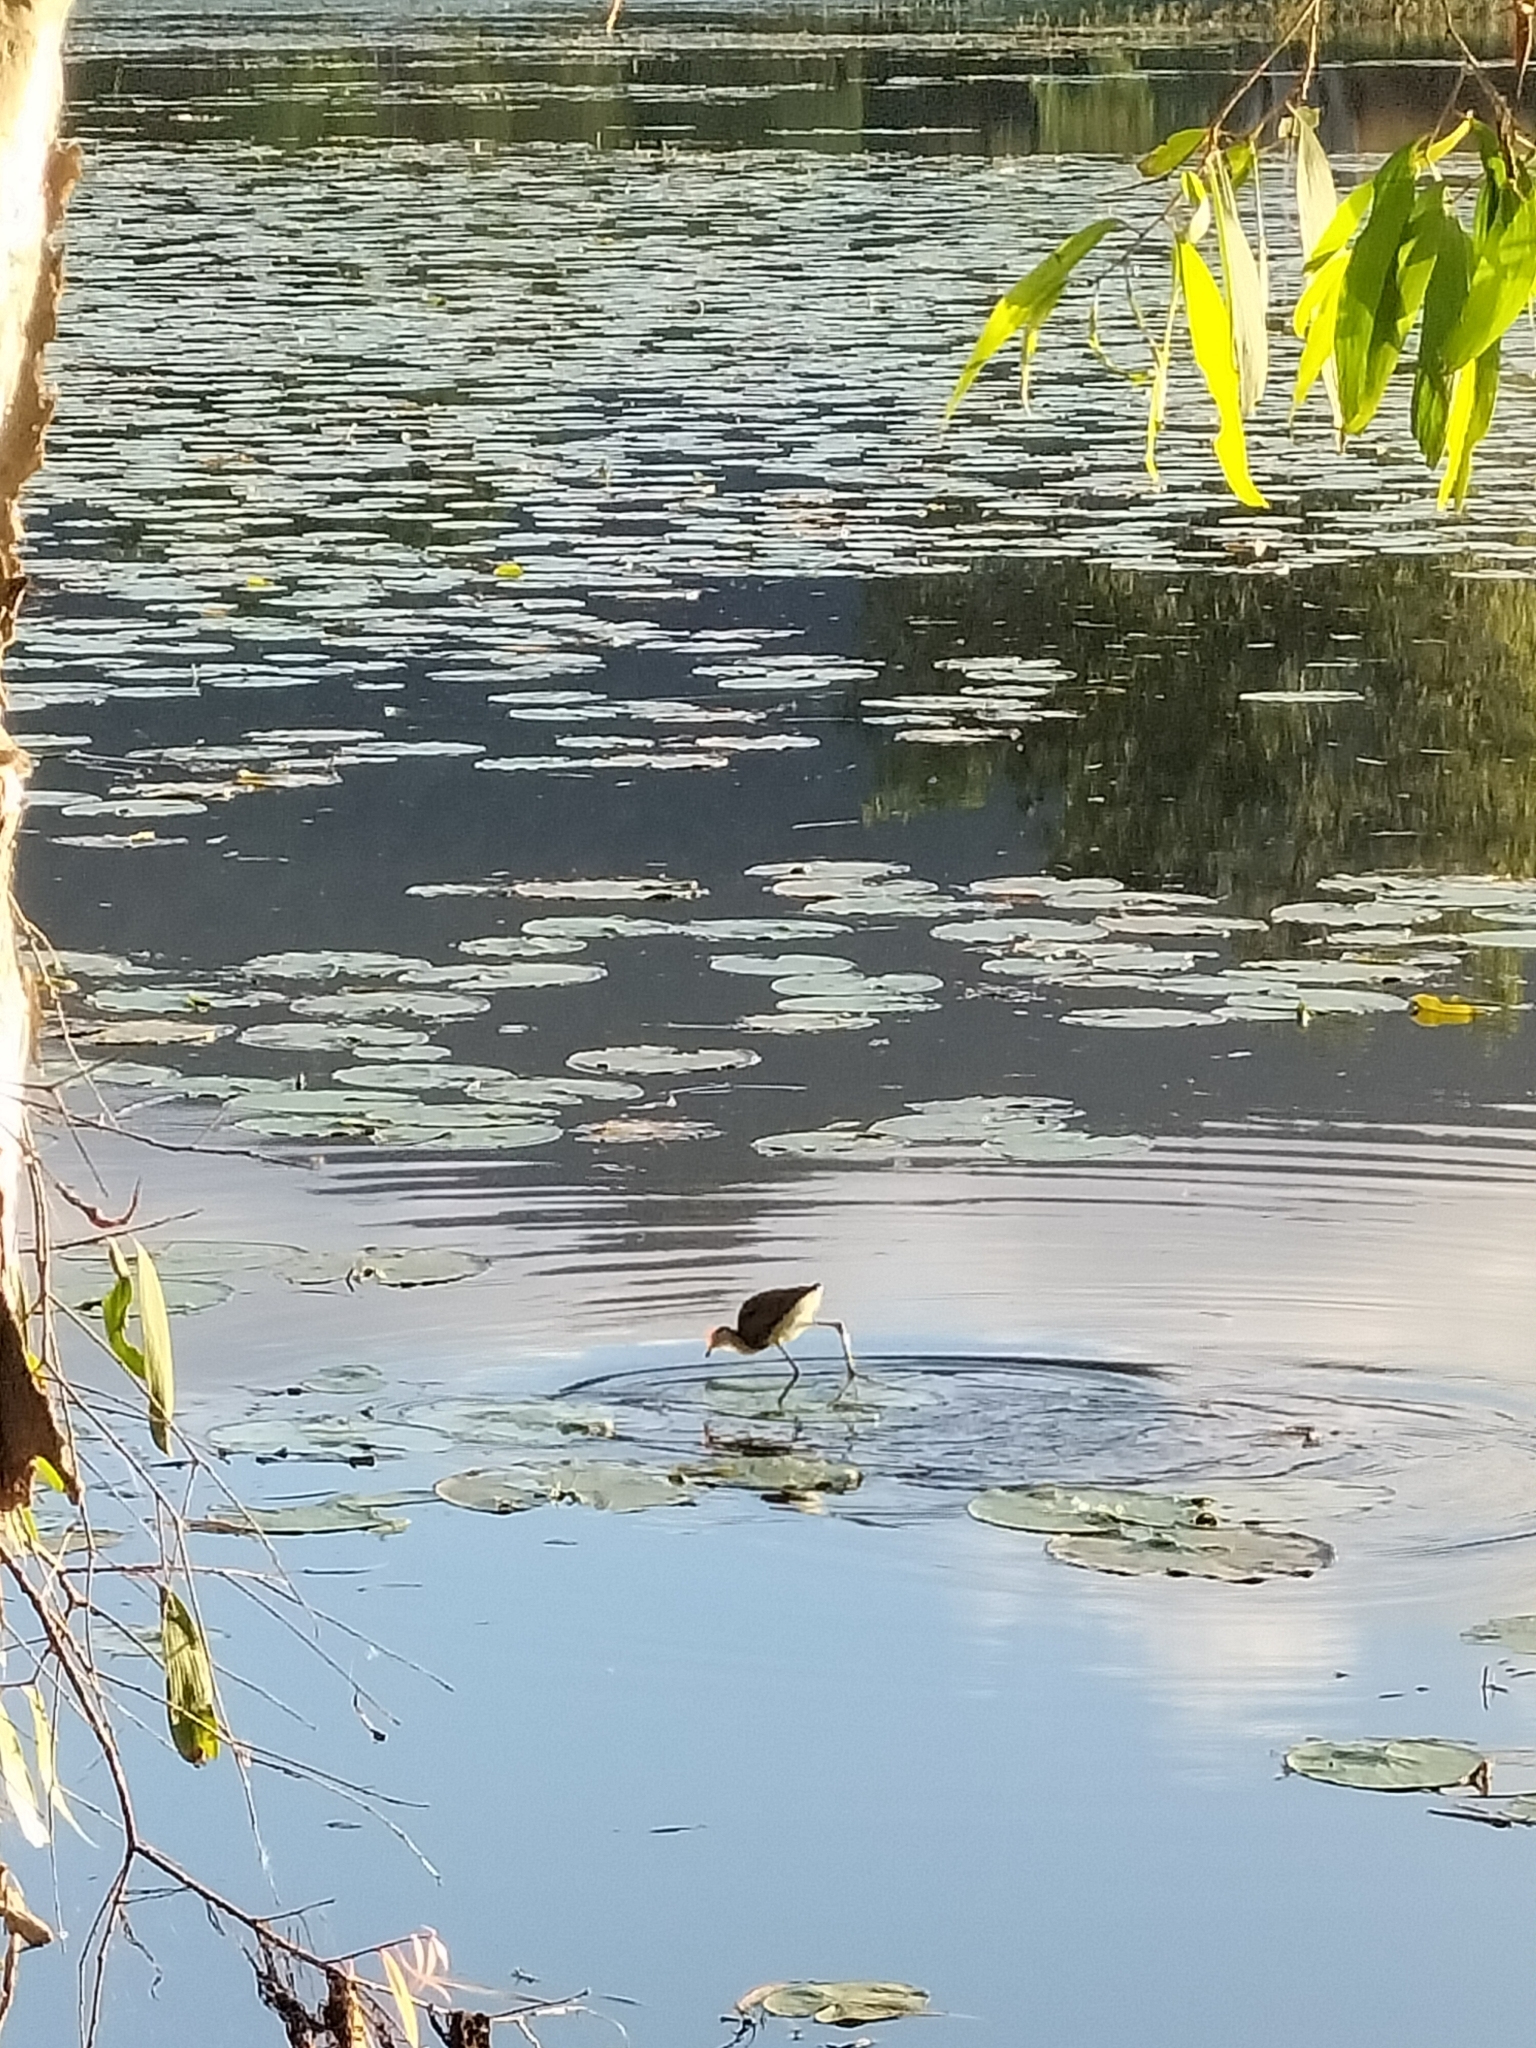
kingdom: Animalia
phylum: Chordata
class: Aves
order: Charadriiformes
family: Jacanidae
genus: Irediparra
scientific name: Irediparra gallinacea
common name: Comb-crested jacana
